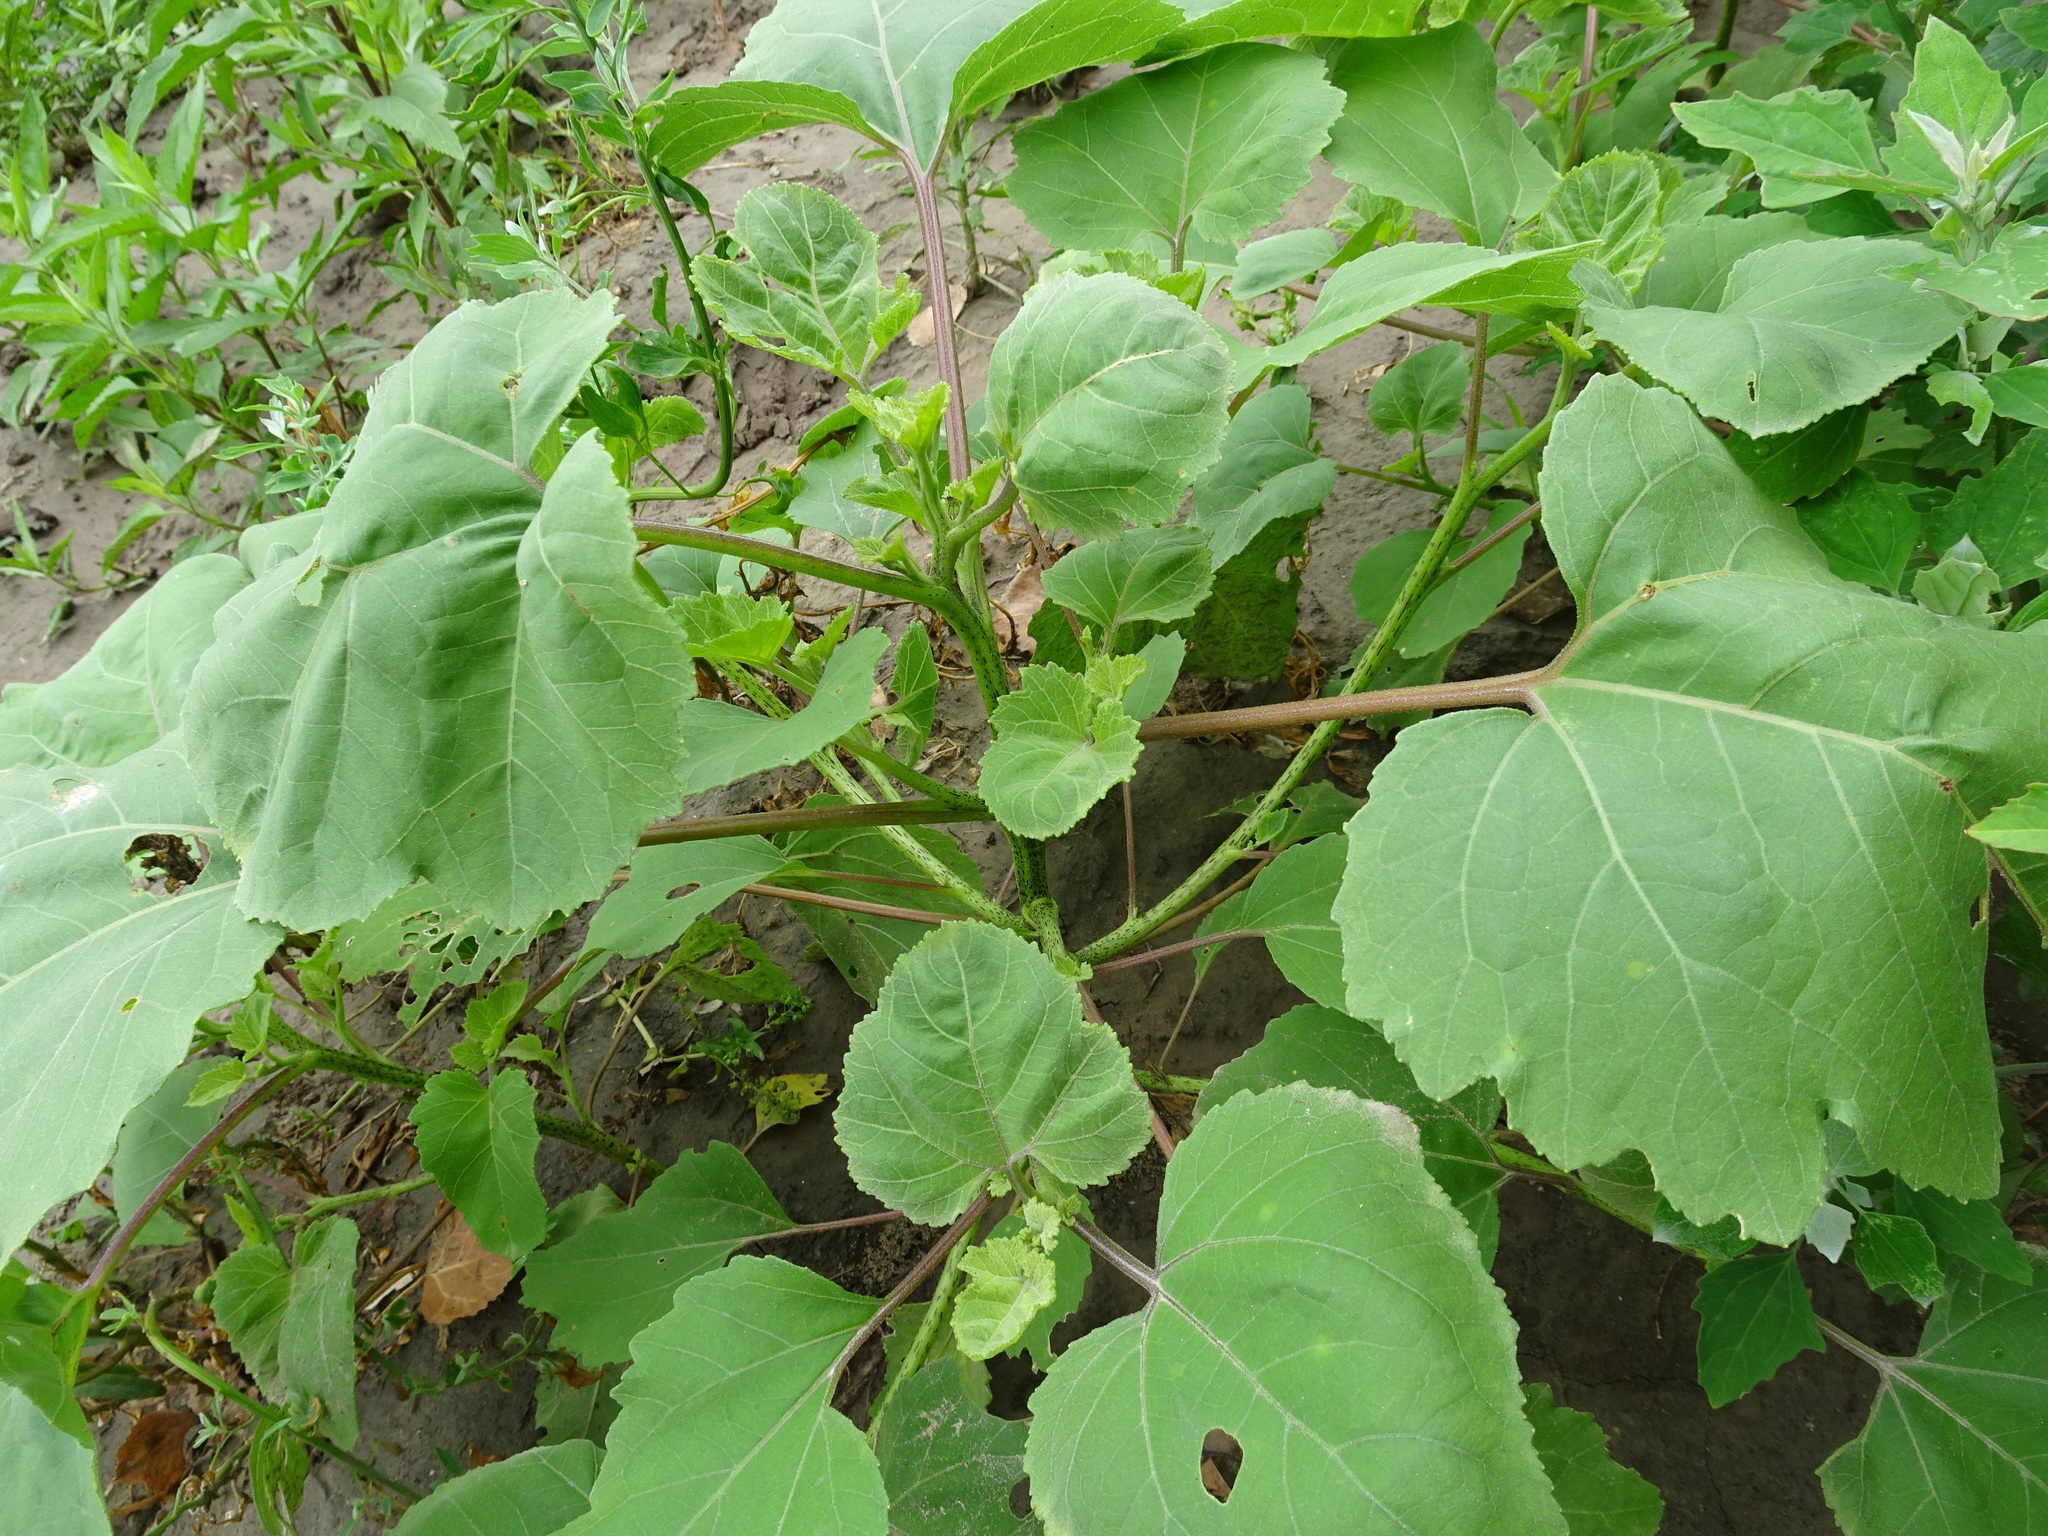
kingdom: Plantae
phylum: Tracheophyta
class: Magnoliopsida
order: Asterales
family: Asteraceae
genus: Xanthium
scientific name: Xanthium strumarium
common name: Rough cocklebur
